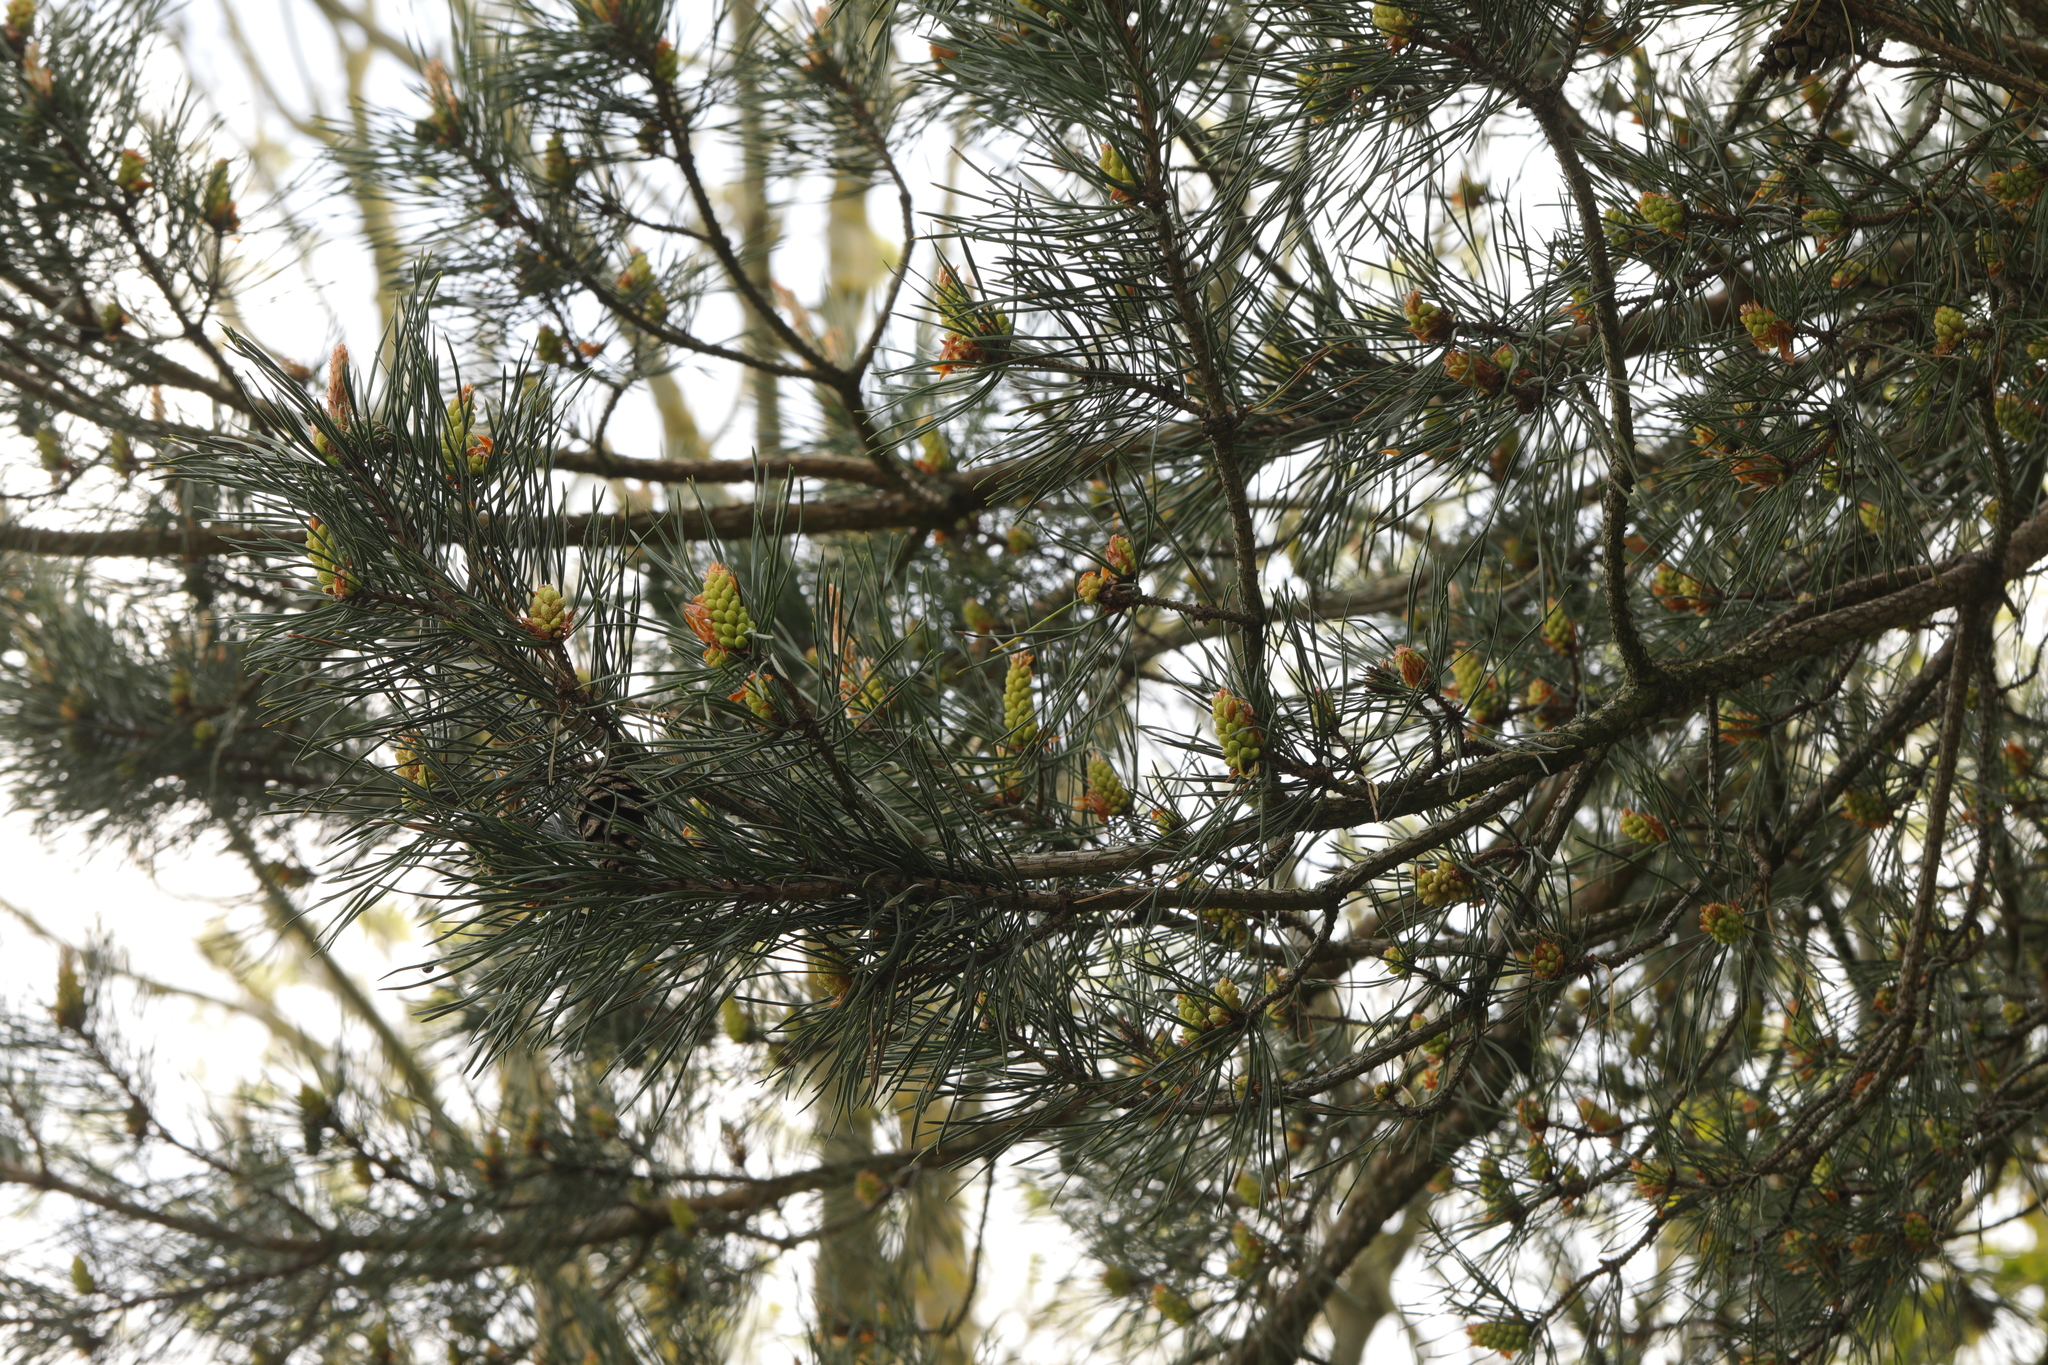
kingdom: Plantae
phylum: Tracheophyta
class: Pinopsida
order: Pinales
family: Pinaceae
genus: Pinus
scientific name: Pinus sylvestris
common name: Scots pine
